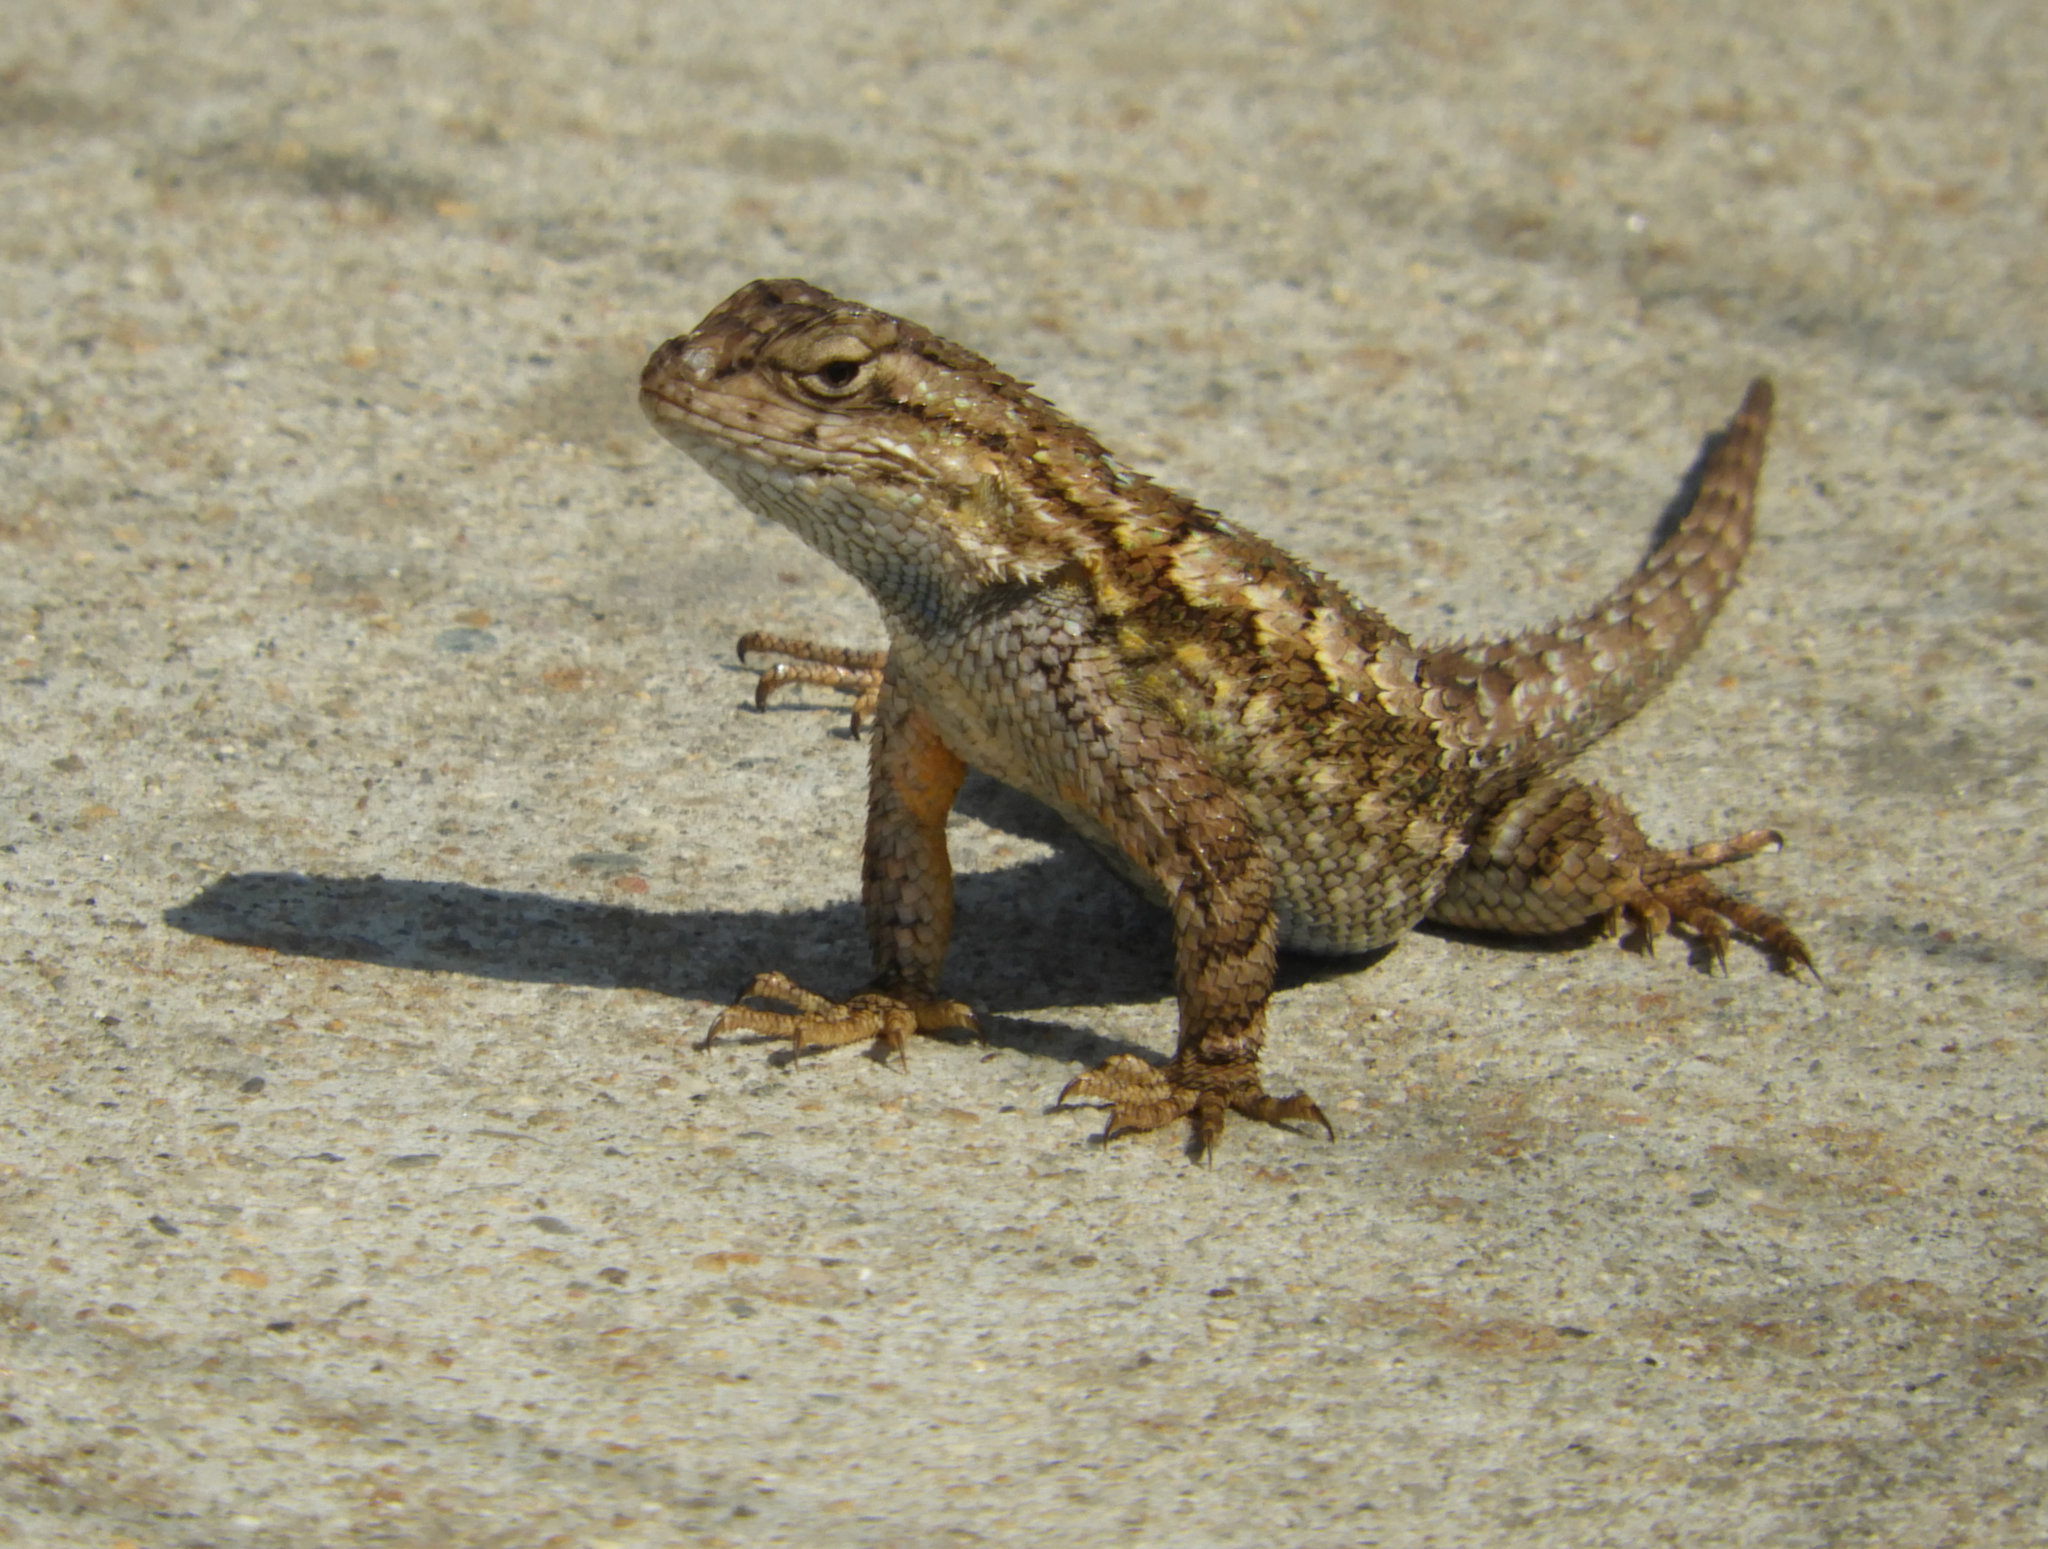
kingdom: Animalia
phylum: Chordata
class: Squamata
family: Phrynosomatidae
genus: Sceloporus
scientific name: Sceloporus occidentalis
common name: Western fence lizard
